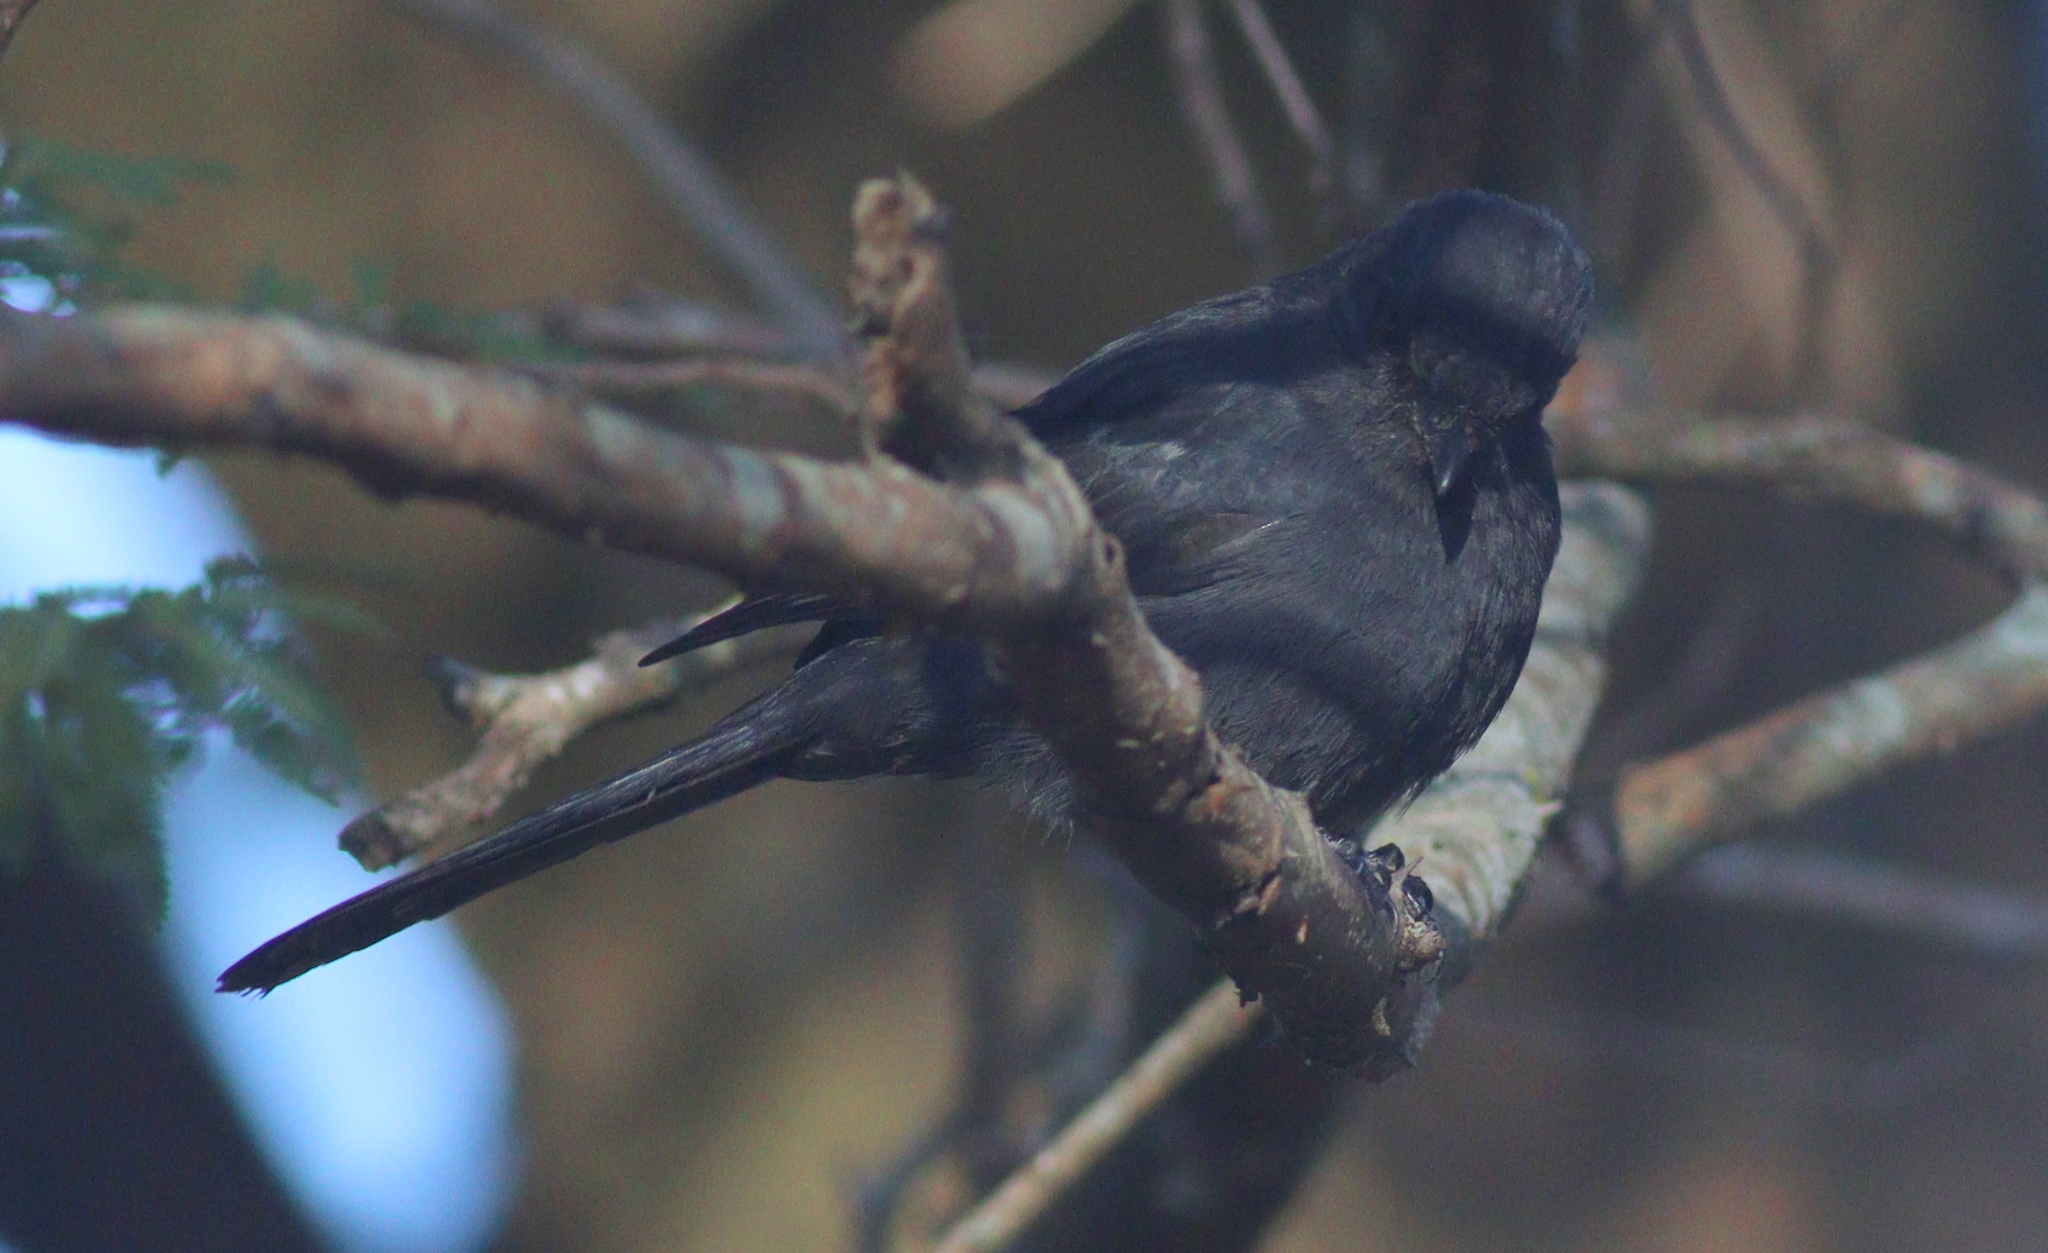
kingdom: Animalia
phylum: Chordata
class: Aves
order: Passeriformes
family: Muscicapidae
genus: Melaenornis
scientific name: Melaenornis edolioides
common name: Northern black flycatcher
